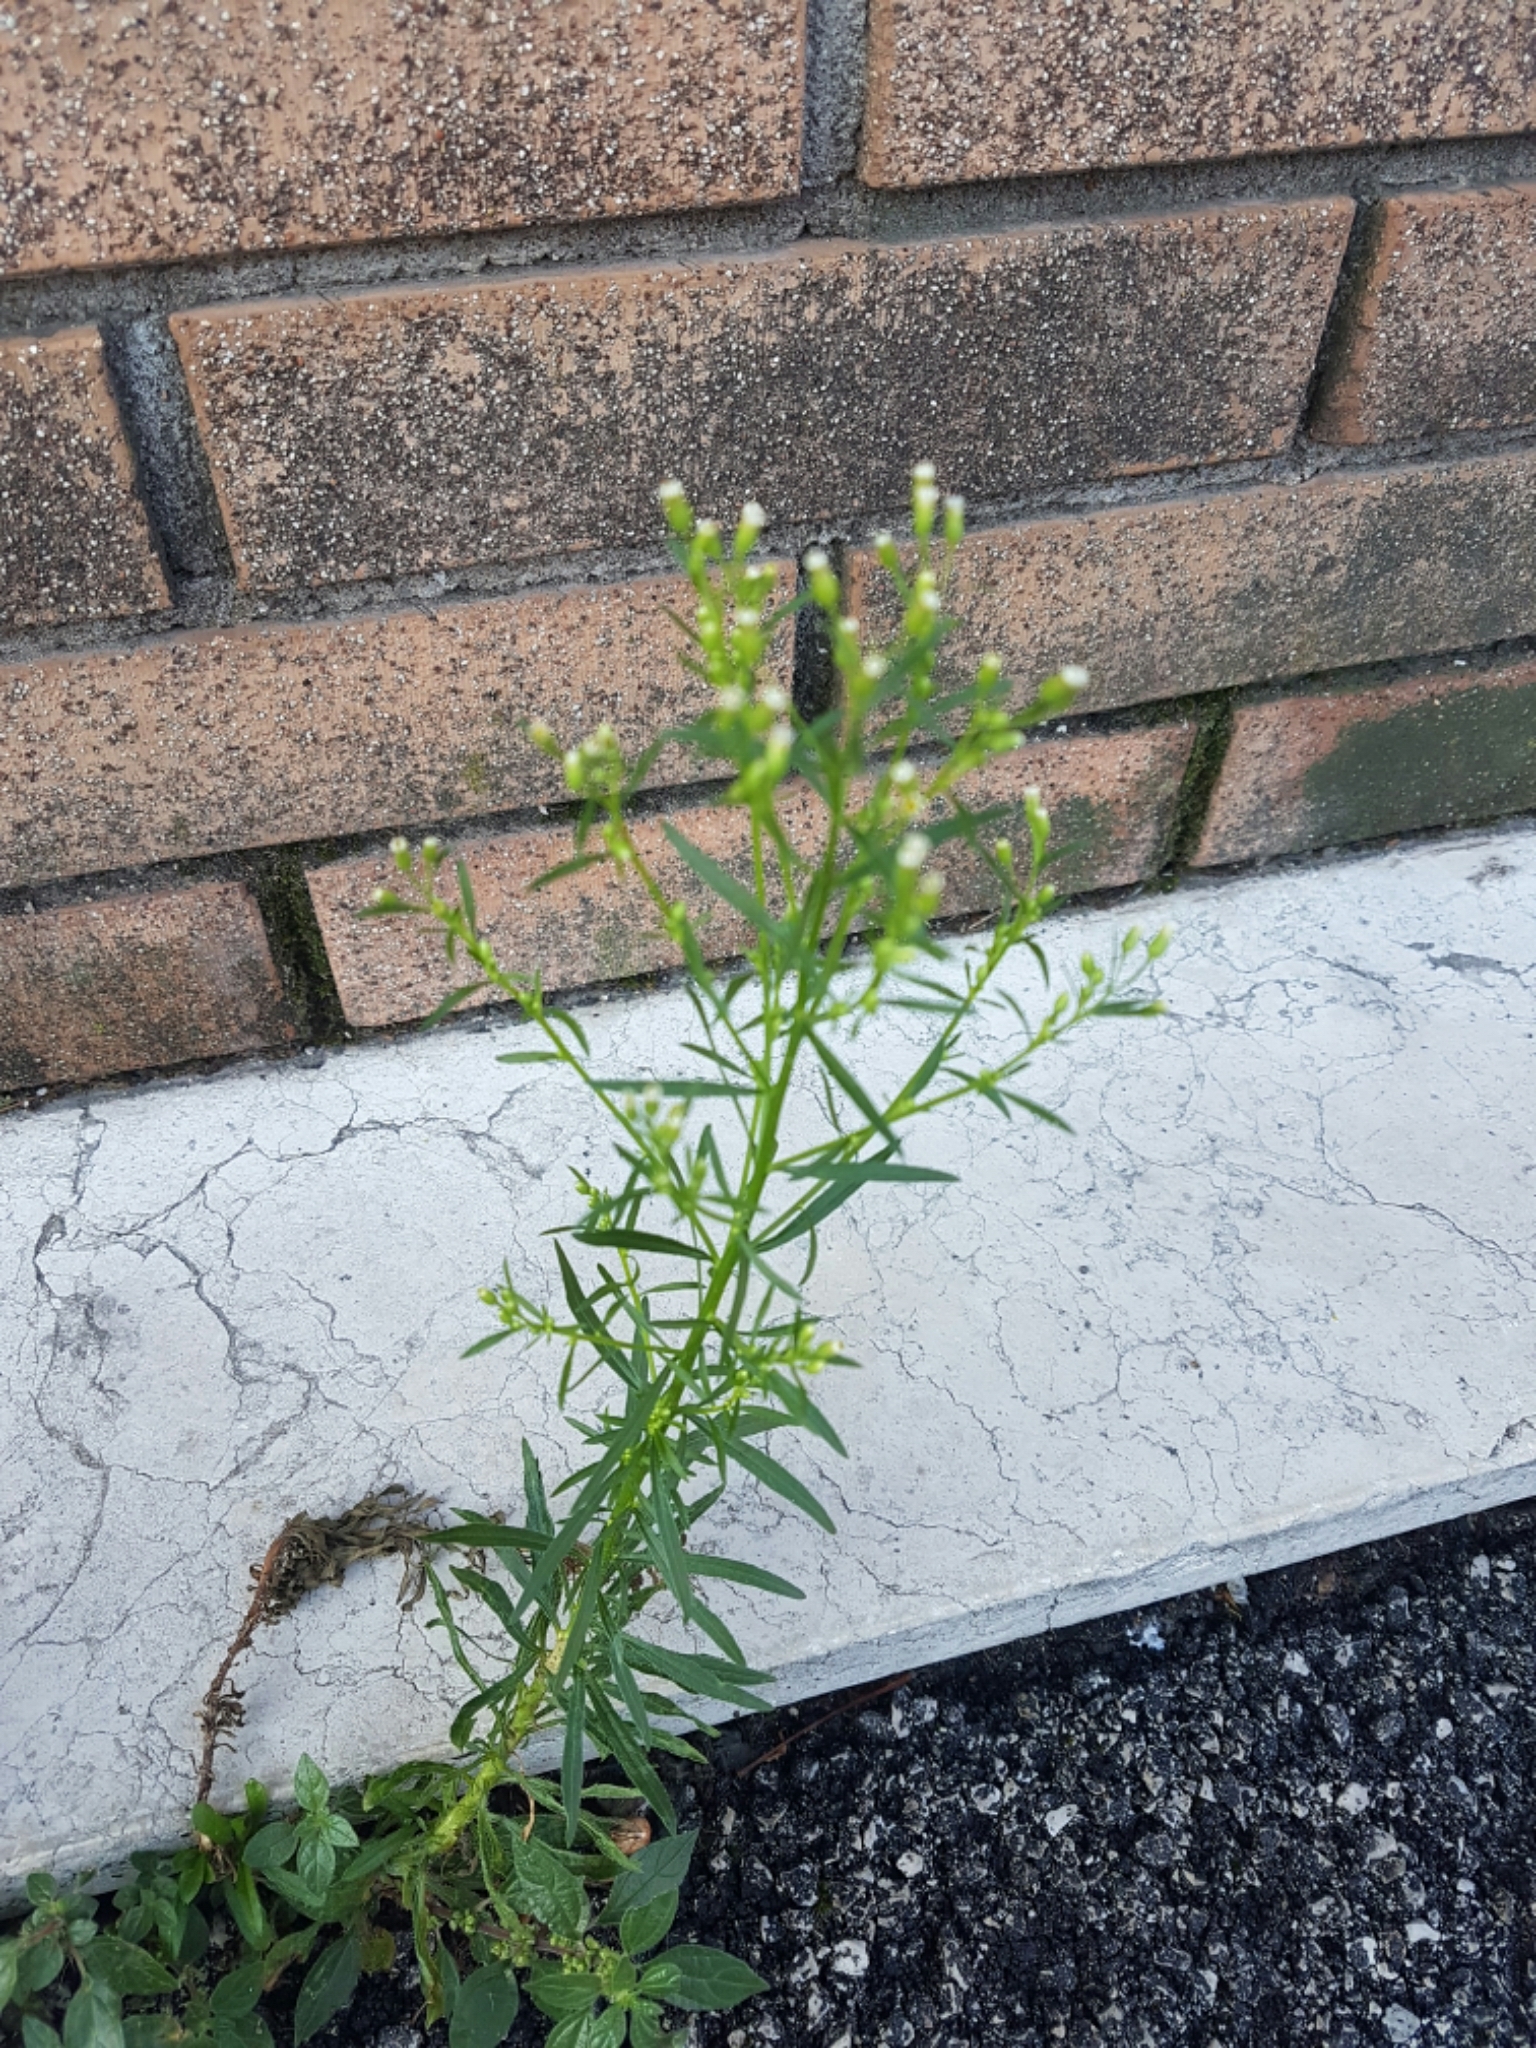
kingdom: Plantae
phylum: Tracheophyta
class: Magnoliopsida
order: Asterales
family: Asteraceae
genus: Erigeron
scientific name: Erigeron canadensis
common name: Canadian fleabane
